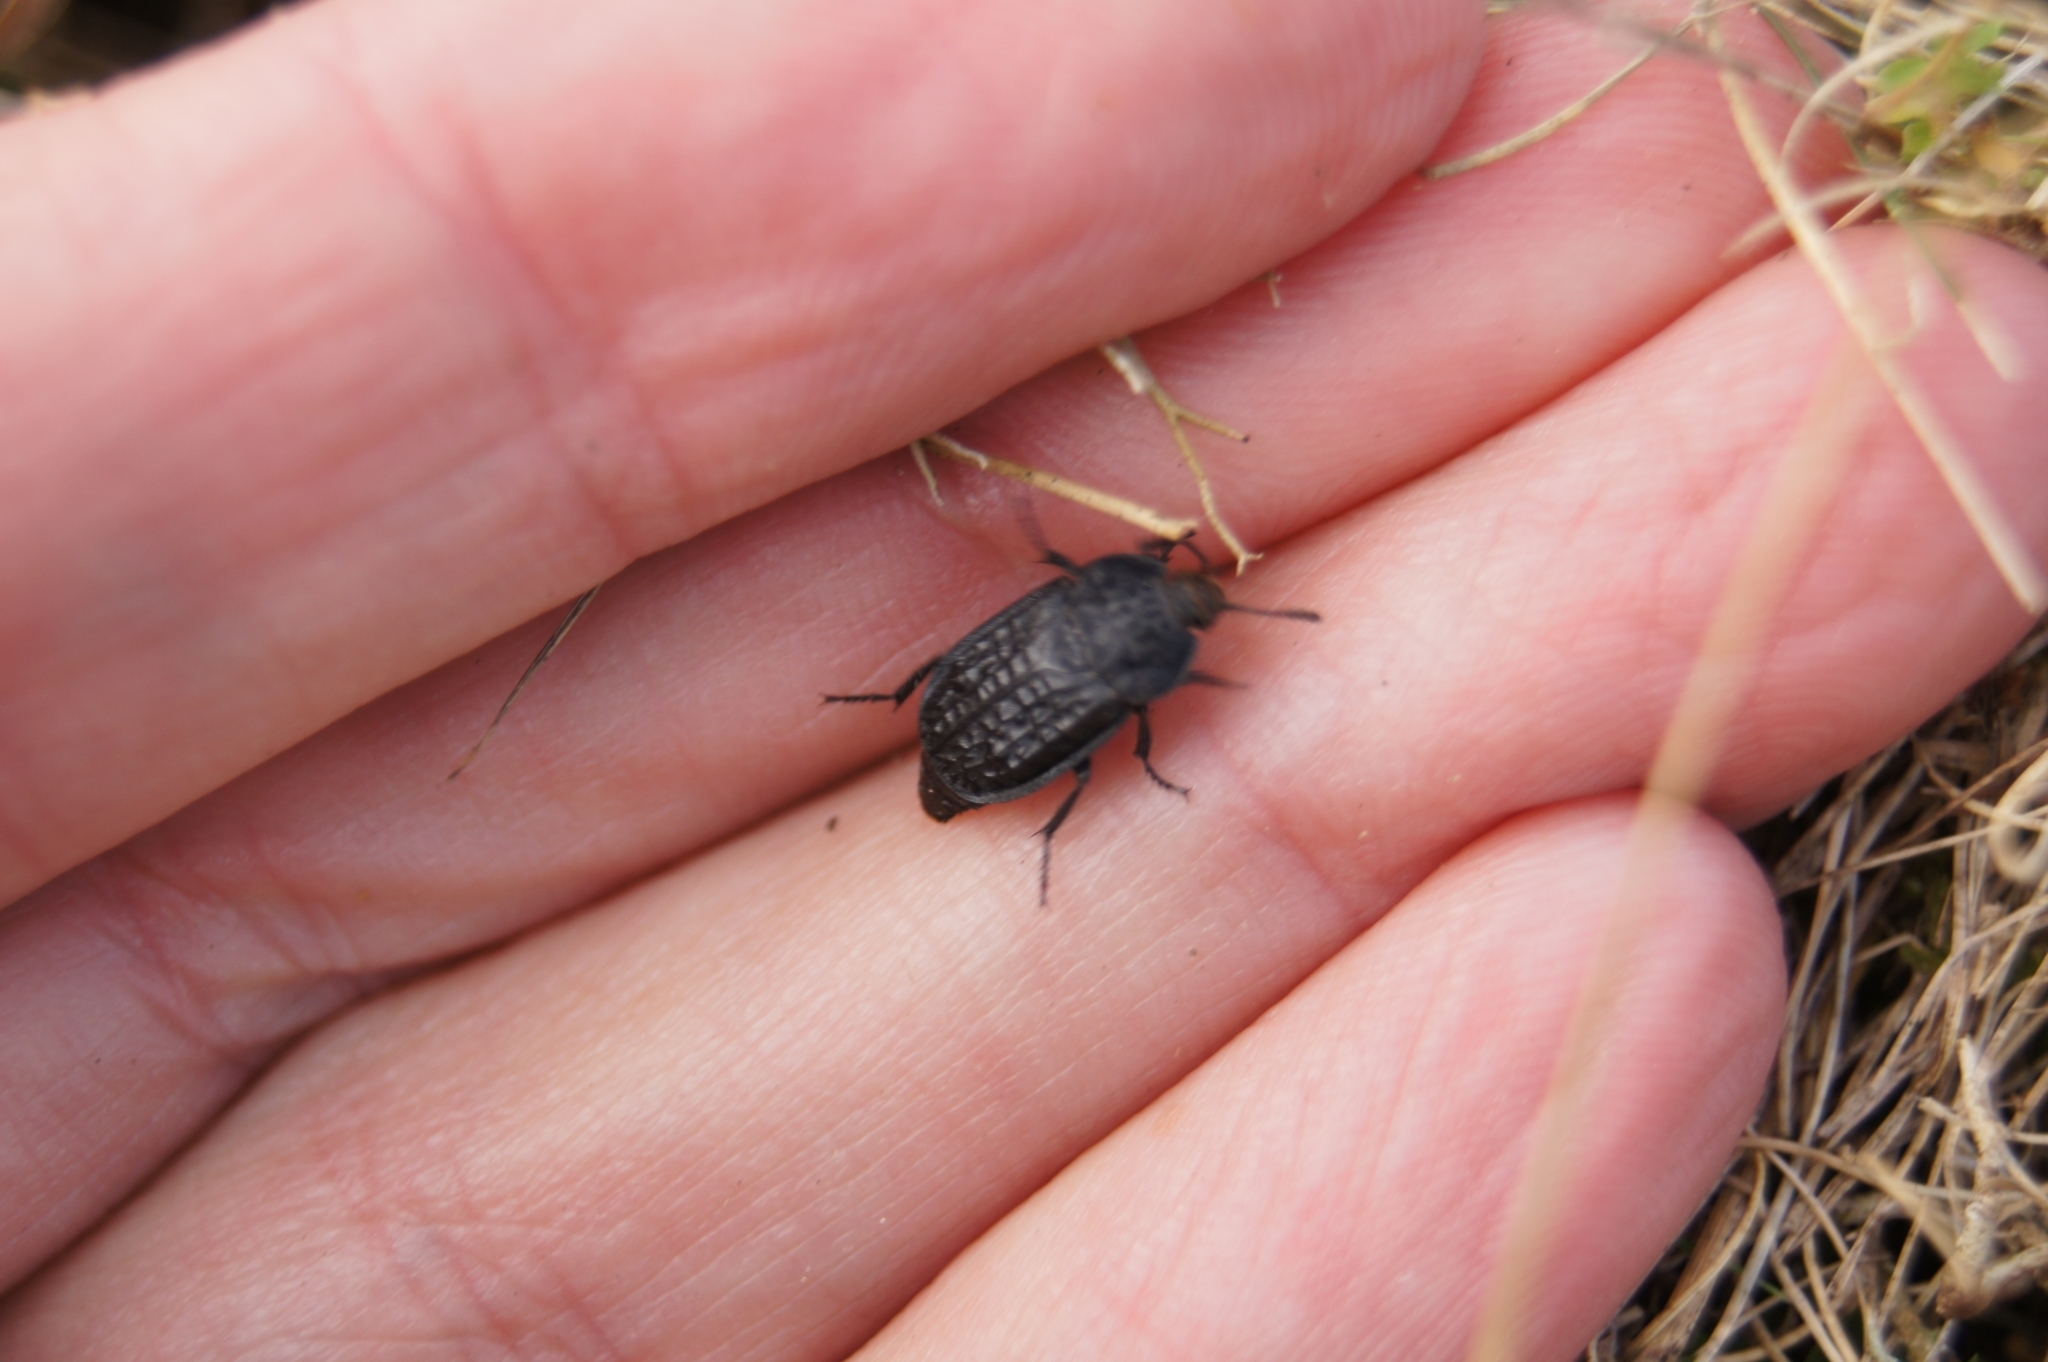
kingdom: Animalia
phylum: Arthropoda
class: Insecta
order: Coleoptera
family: Staphylinidae
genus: Thanatophilus
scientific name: Thanatophilus rugosus
